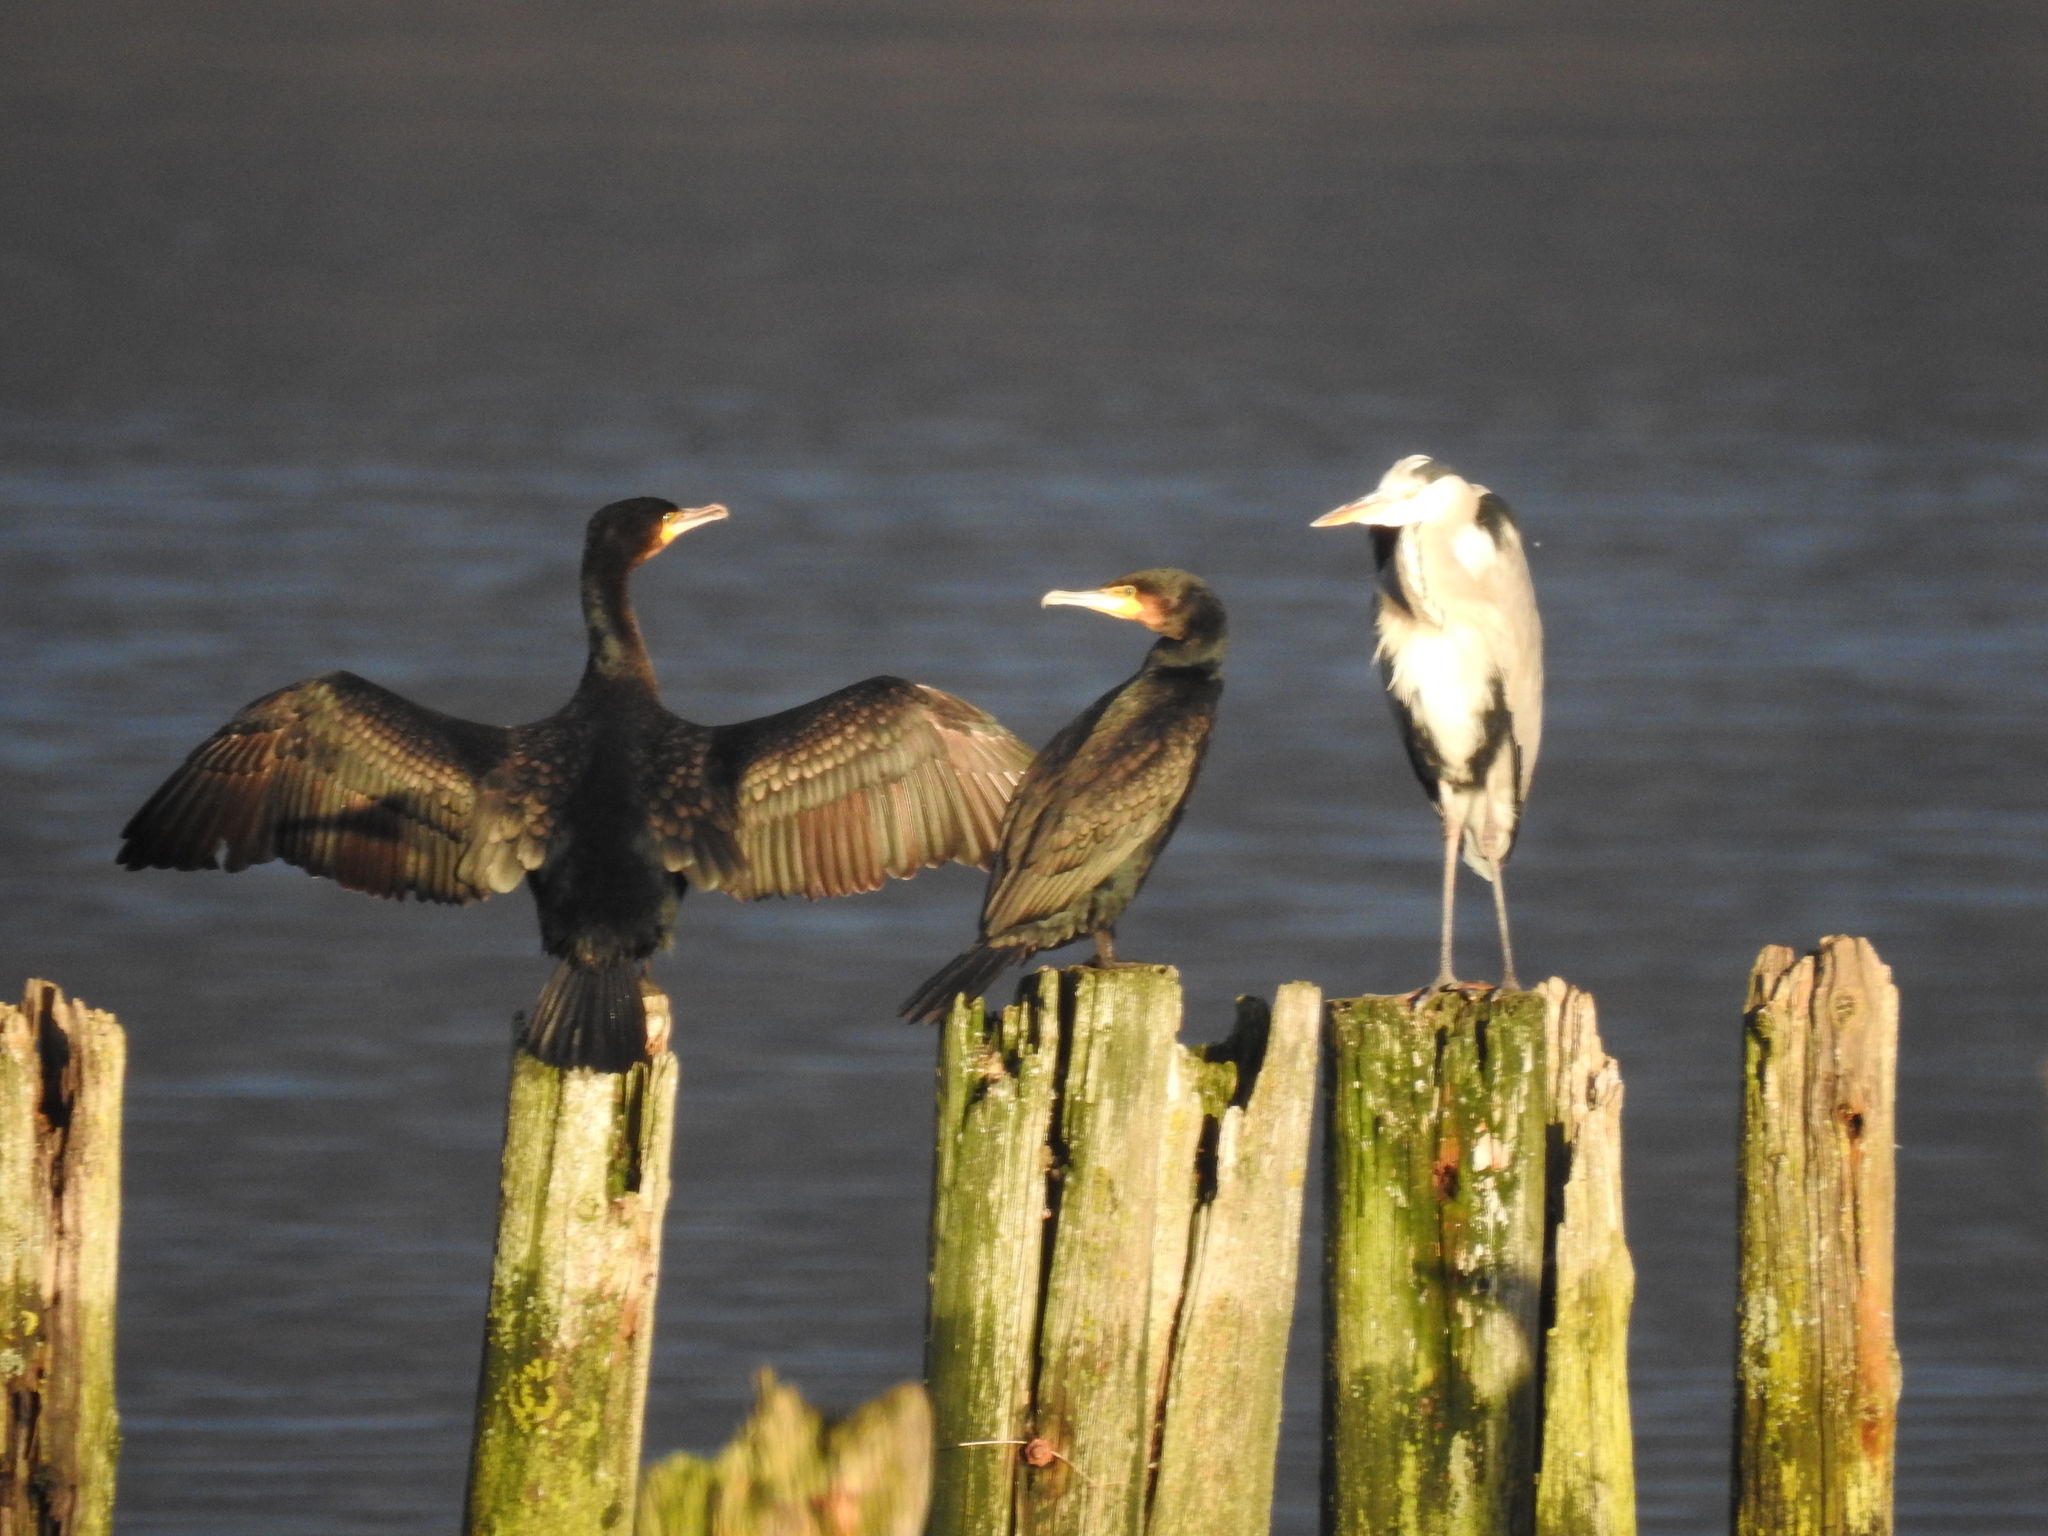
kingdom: Animalia
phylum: Chordata
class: Aves
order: Suliformes
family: Phalacrocoracidae
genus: Phalacrocorax
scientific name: Phalacrocorax carbo
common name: Great cormorant
